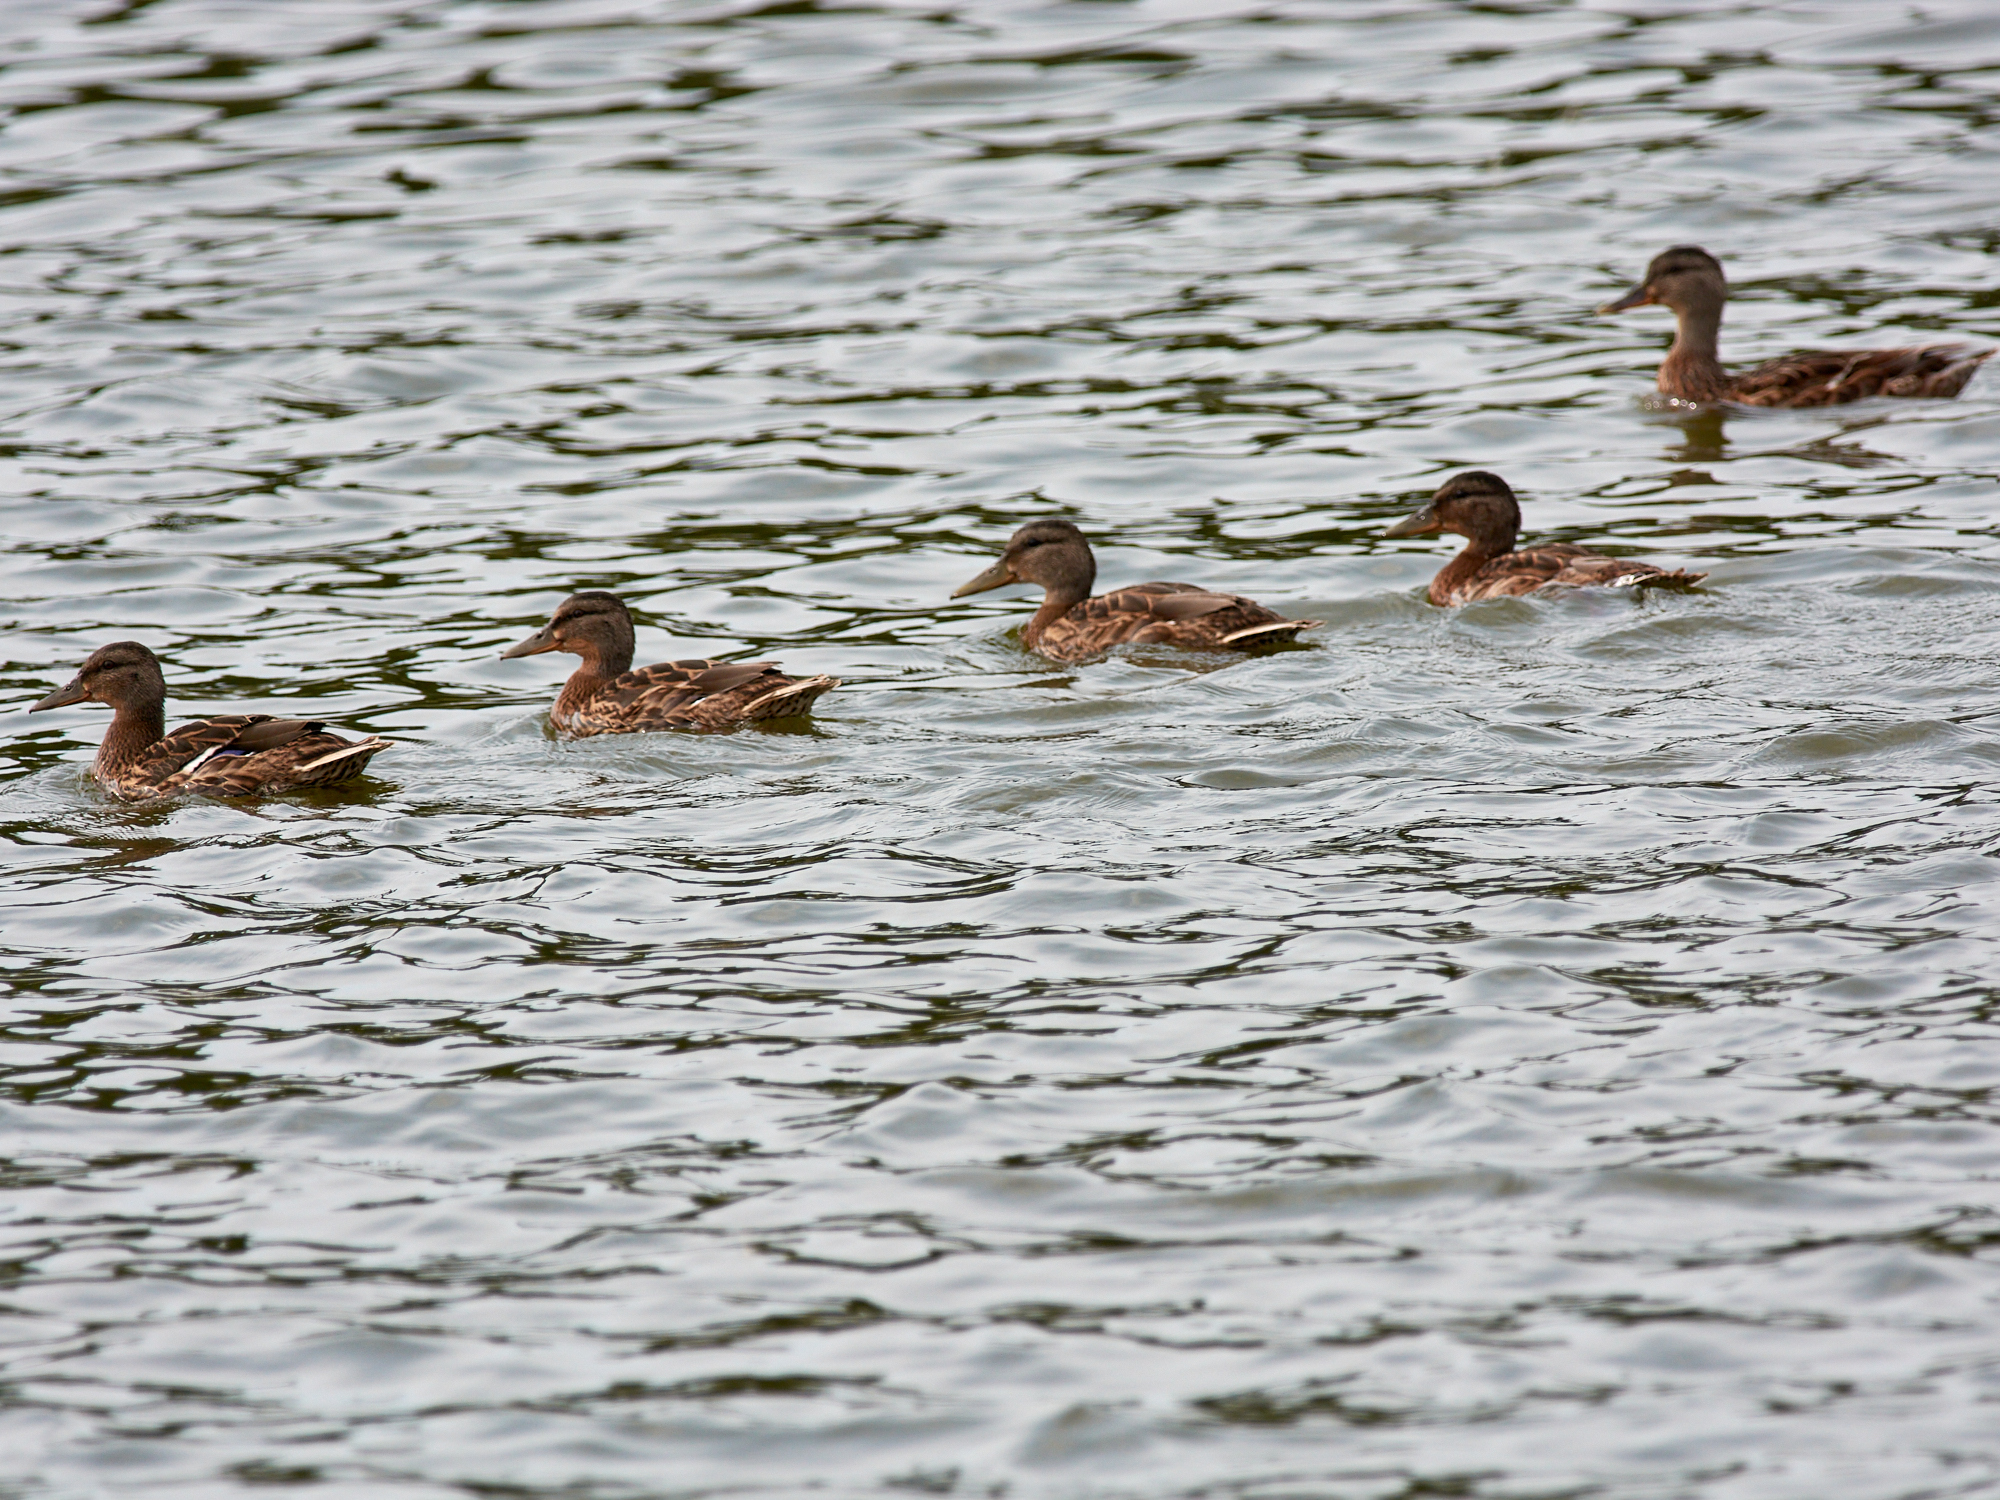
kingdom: Animalia
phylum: Chordata
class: Aves
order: Anseriformes
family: Anatidae
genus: Anas
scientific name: Anas platyrhynchos
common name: Mallard
